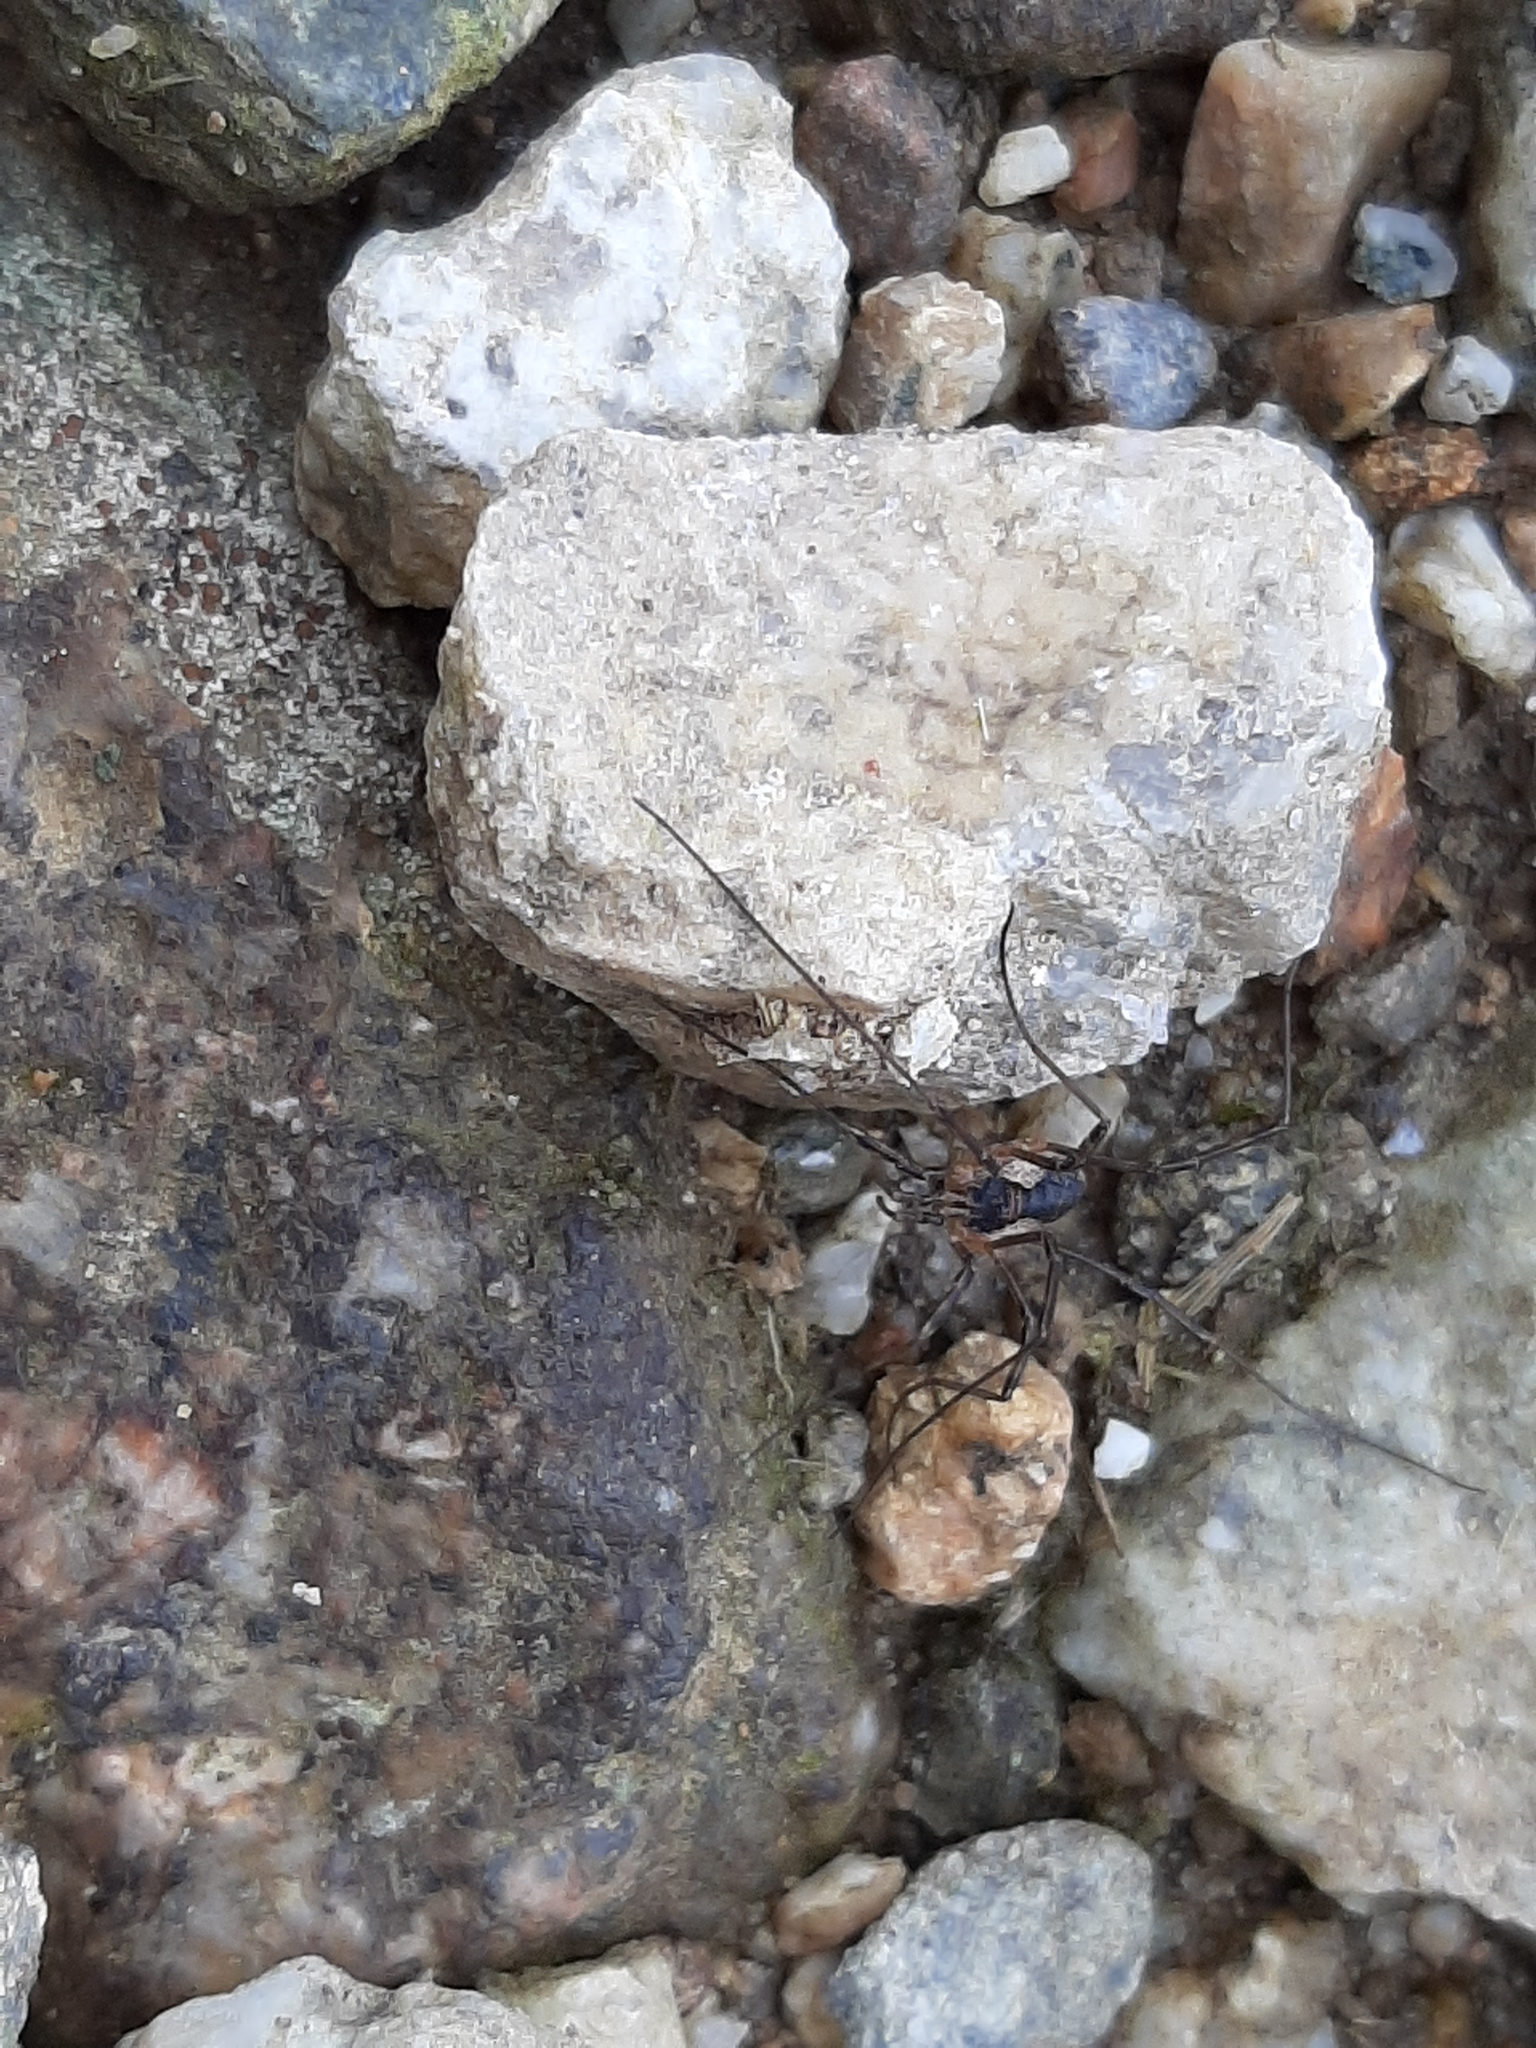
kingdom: Animalia
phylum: Arthropoda
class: Arachnida
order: Opiliones
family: Phalangiidae
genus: Mitopus
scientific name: Mitopus morio
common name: Saddleback harvestman
